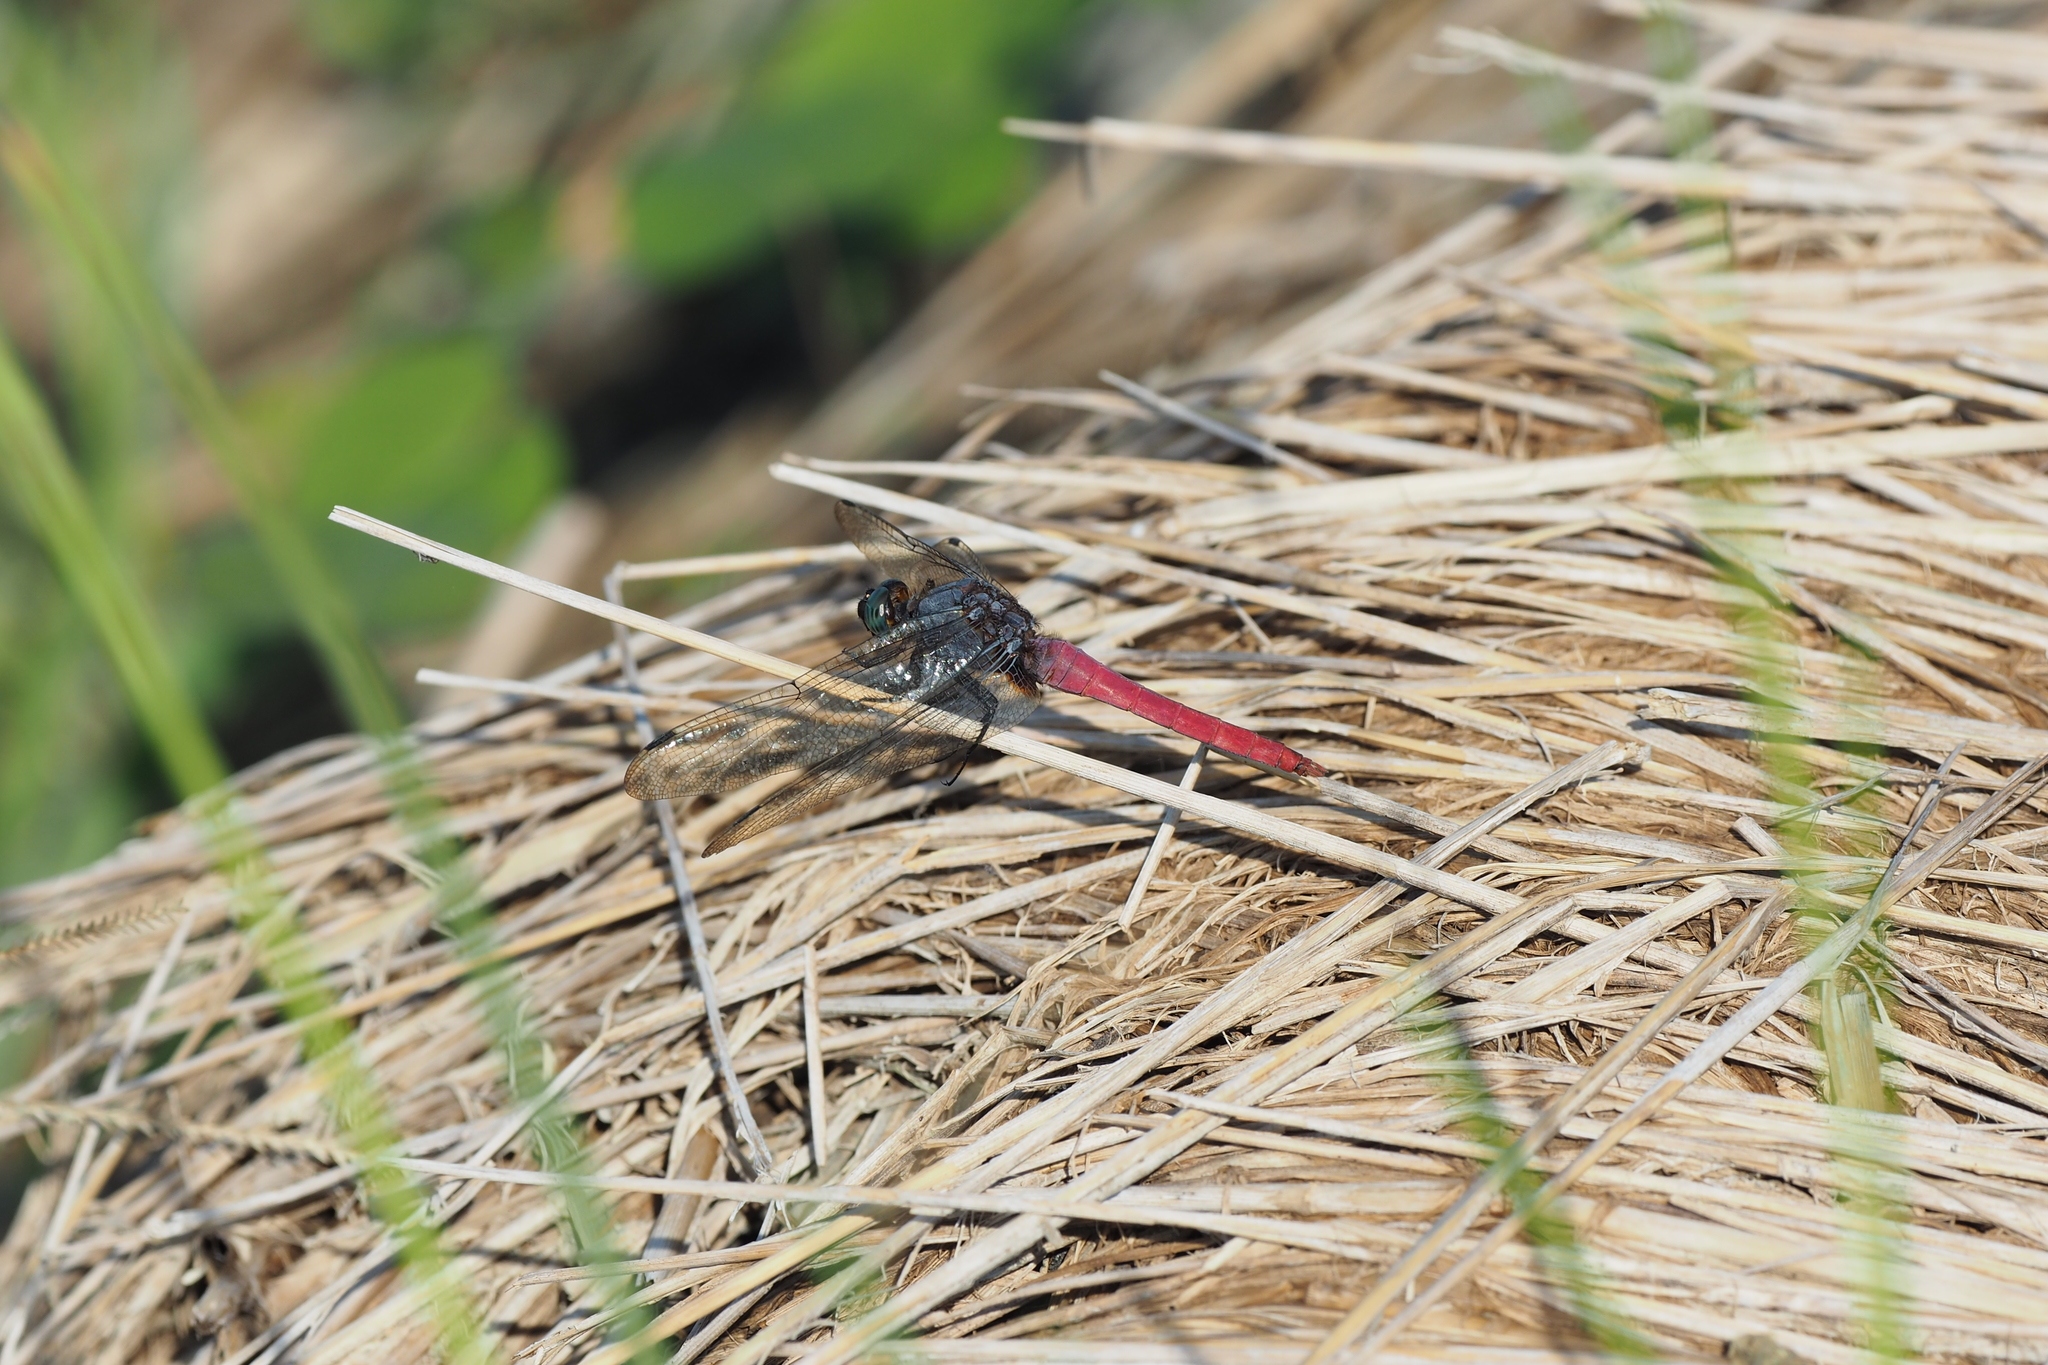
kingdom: Animalia
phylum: Arthropoda
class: Insecta
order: Odonata
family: Libellulidae
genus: Orthetrum
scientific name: Orthetrum pruinosum
